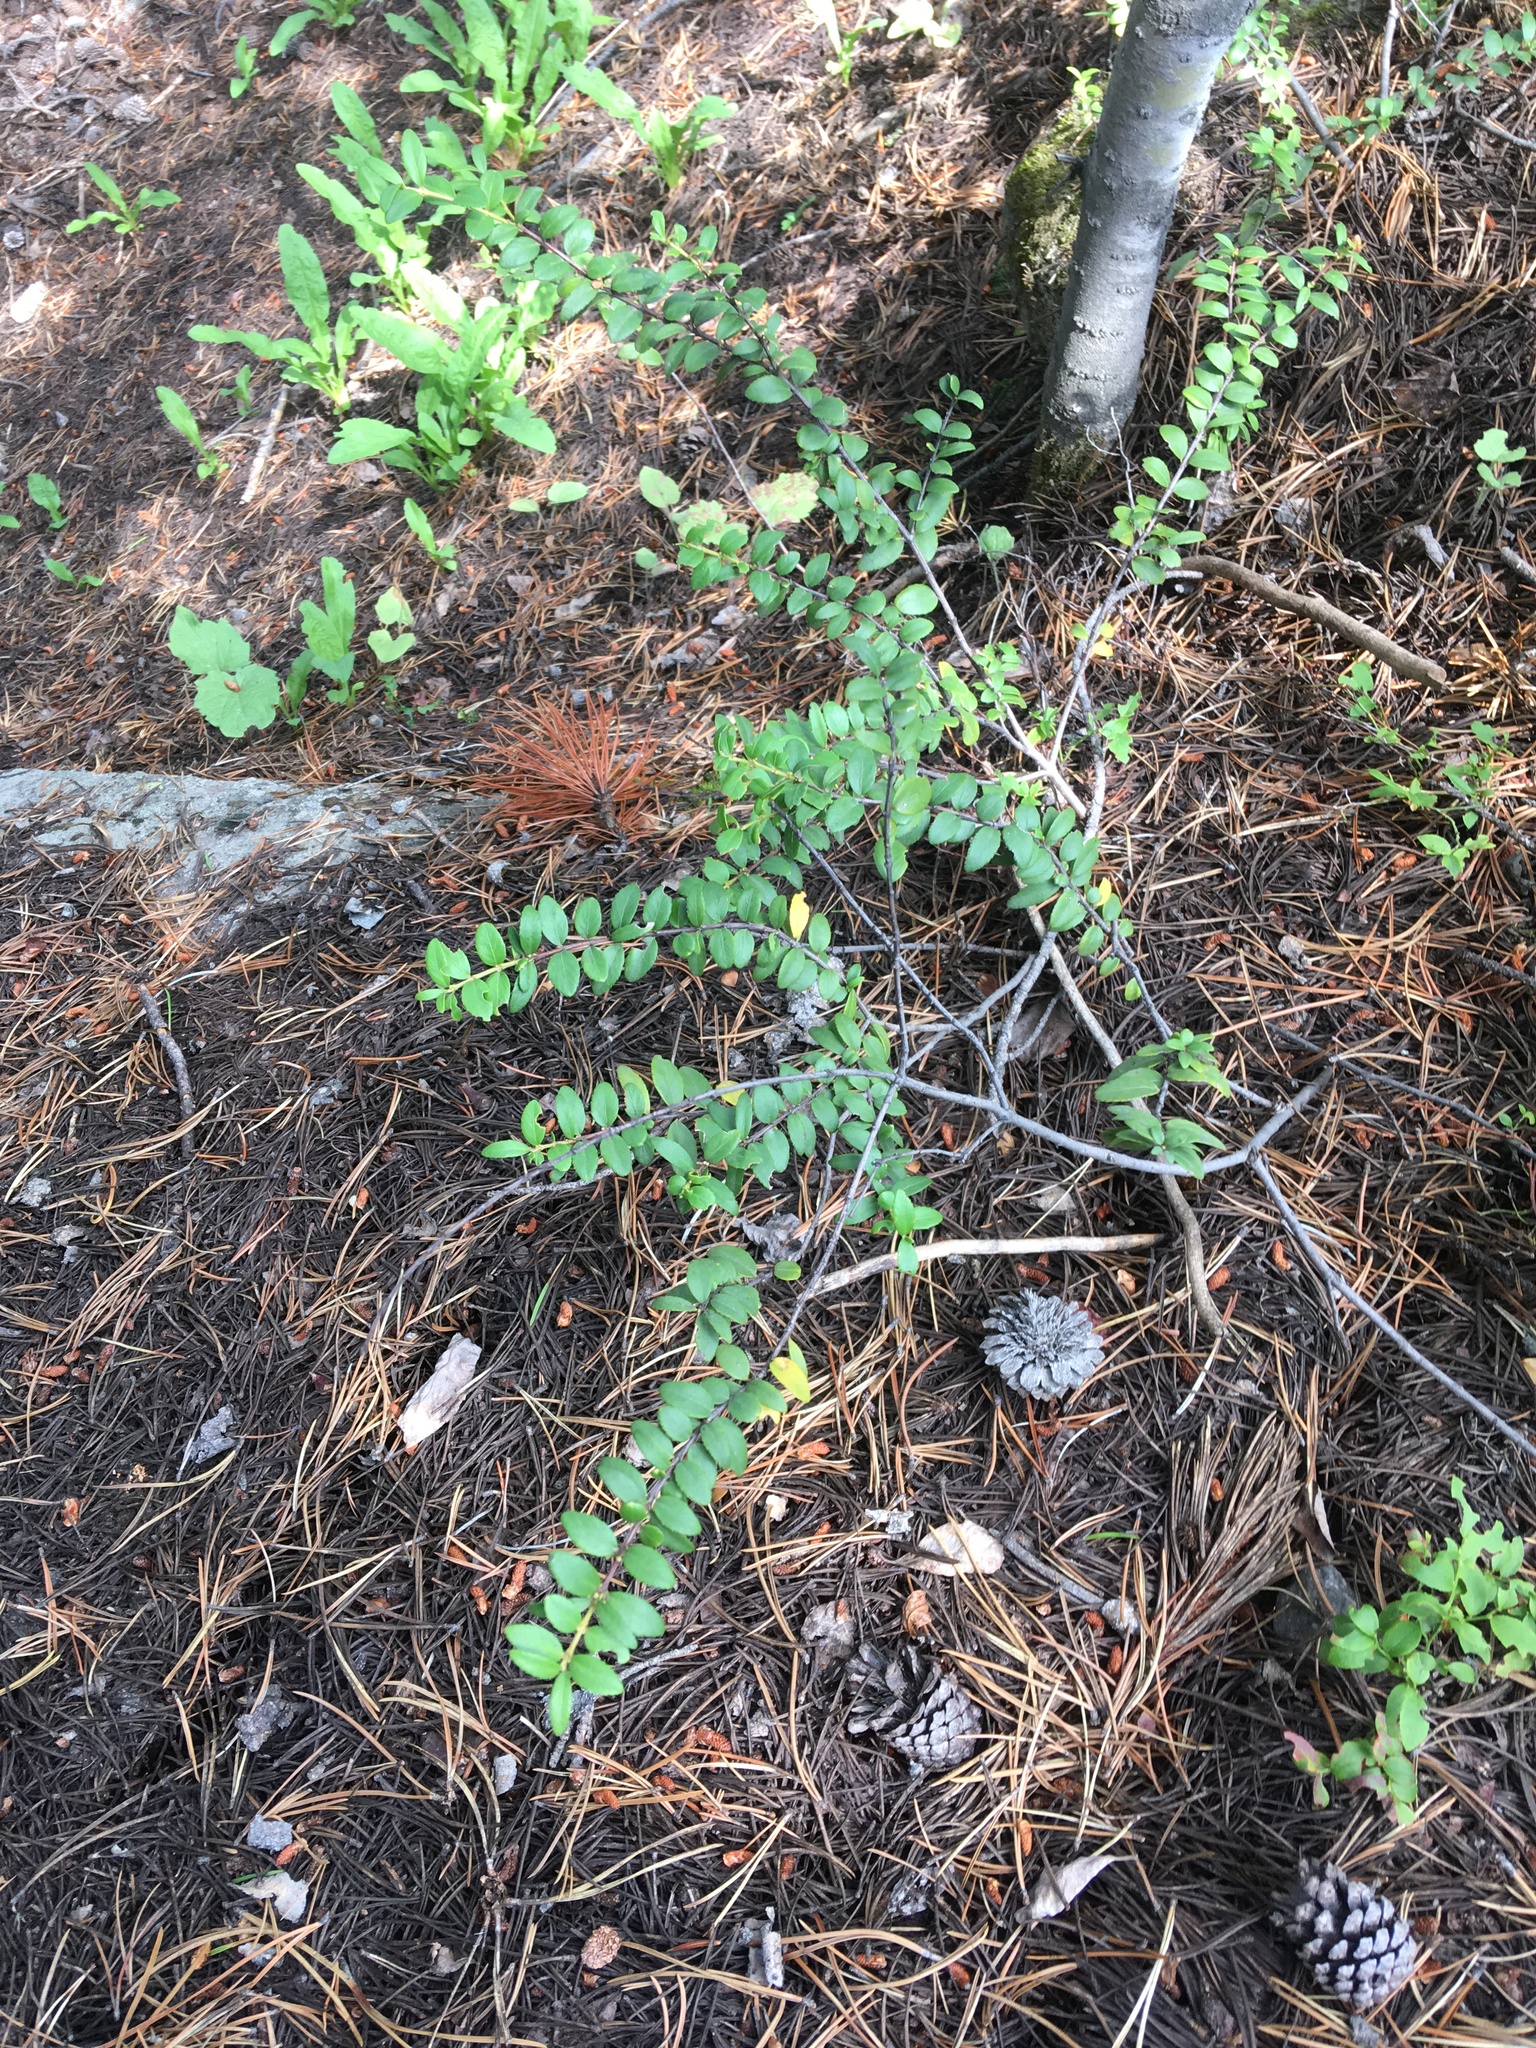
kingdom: Plantae
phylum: Tracheophyta
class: Magnoliopsida
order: Celastrales
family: Celastraceae
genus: Paxistima
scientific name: Paxistima myrsinites
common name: Mountain-lover
